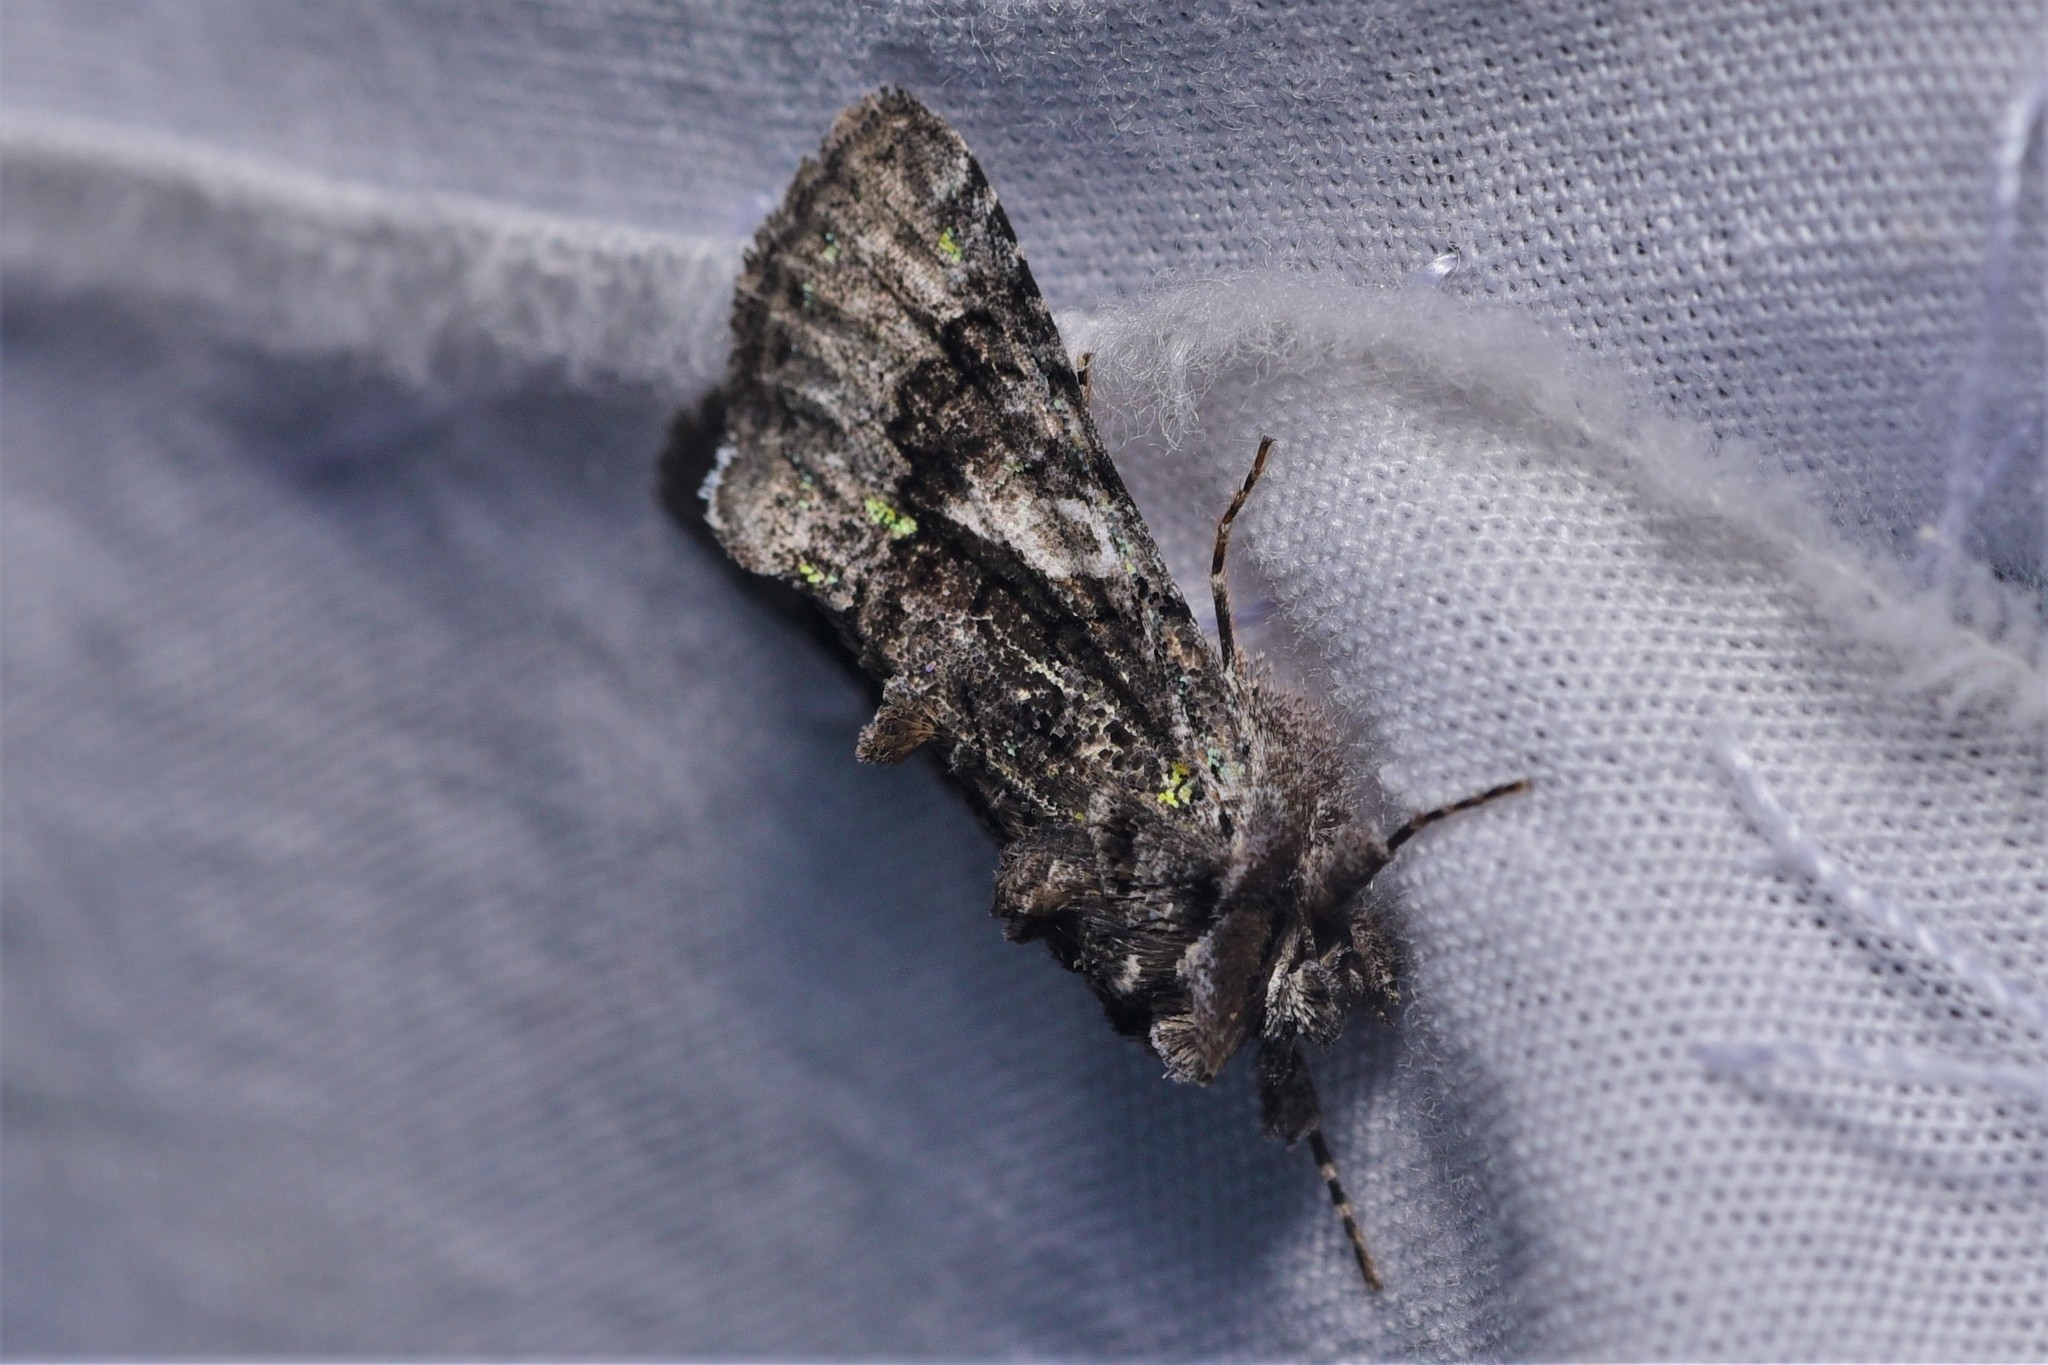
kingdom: Animalia
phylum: Arthropoda
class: Insecta
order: Lepidoptera
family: Noctuidae
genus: Behrensia
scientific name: Behrensia conchiformis
